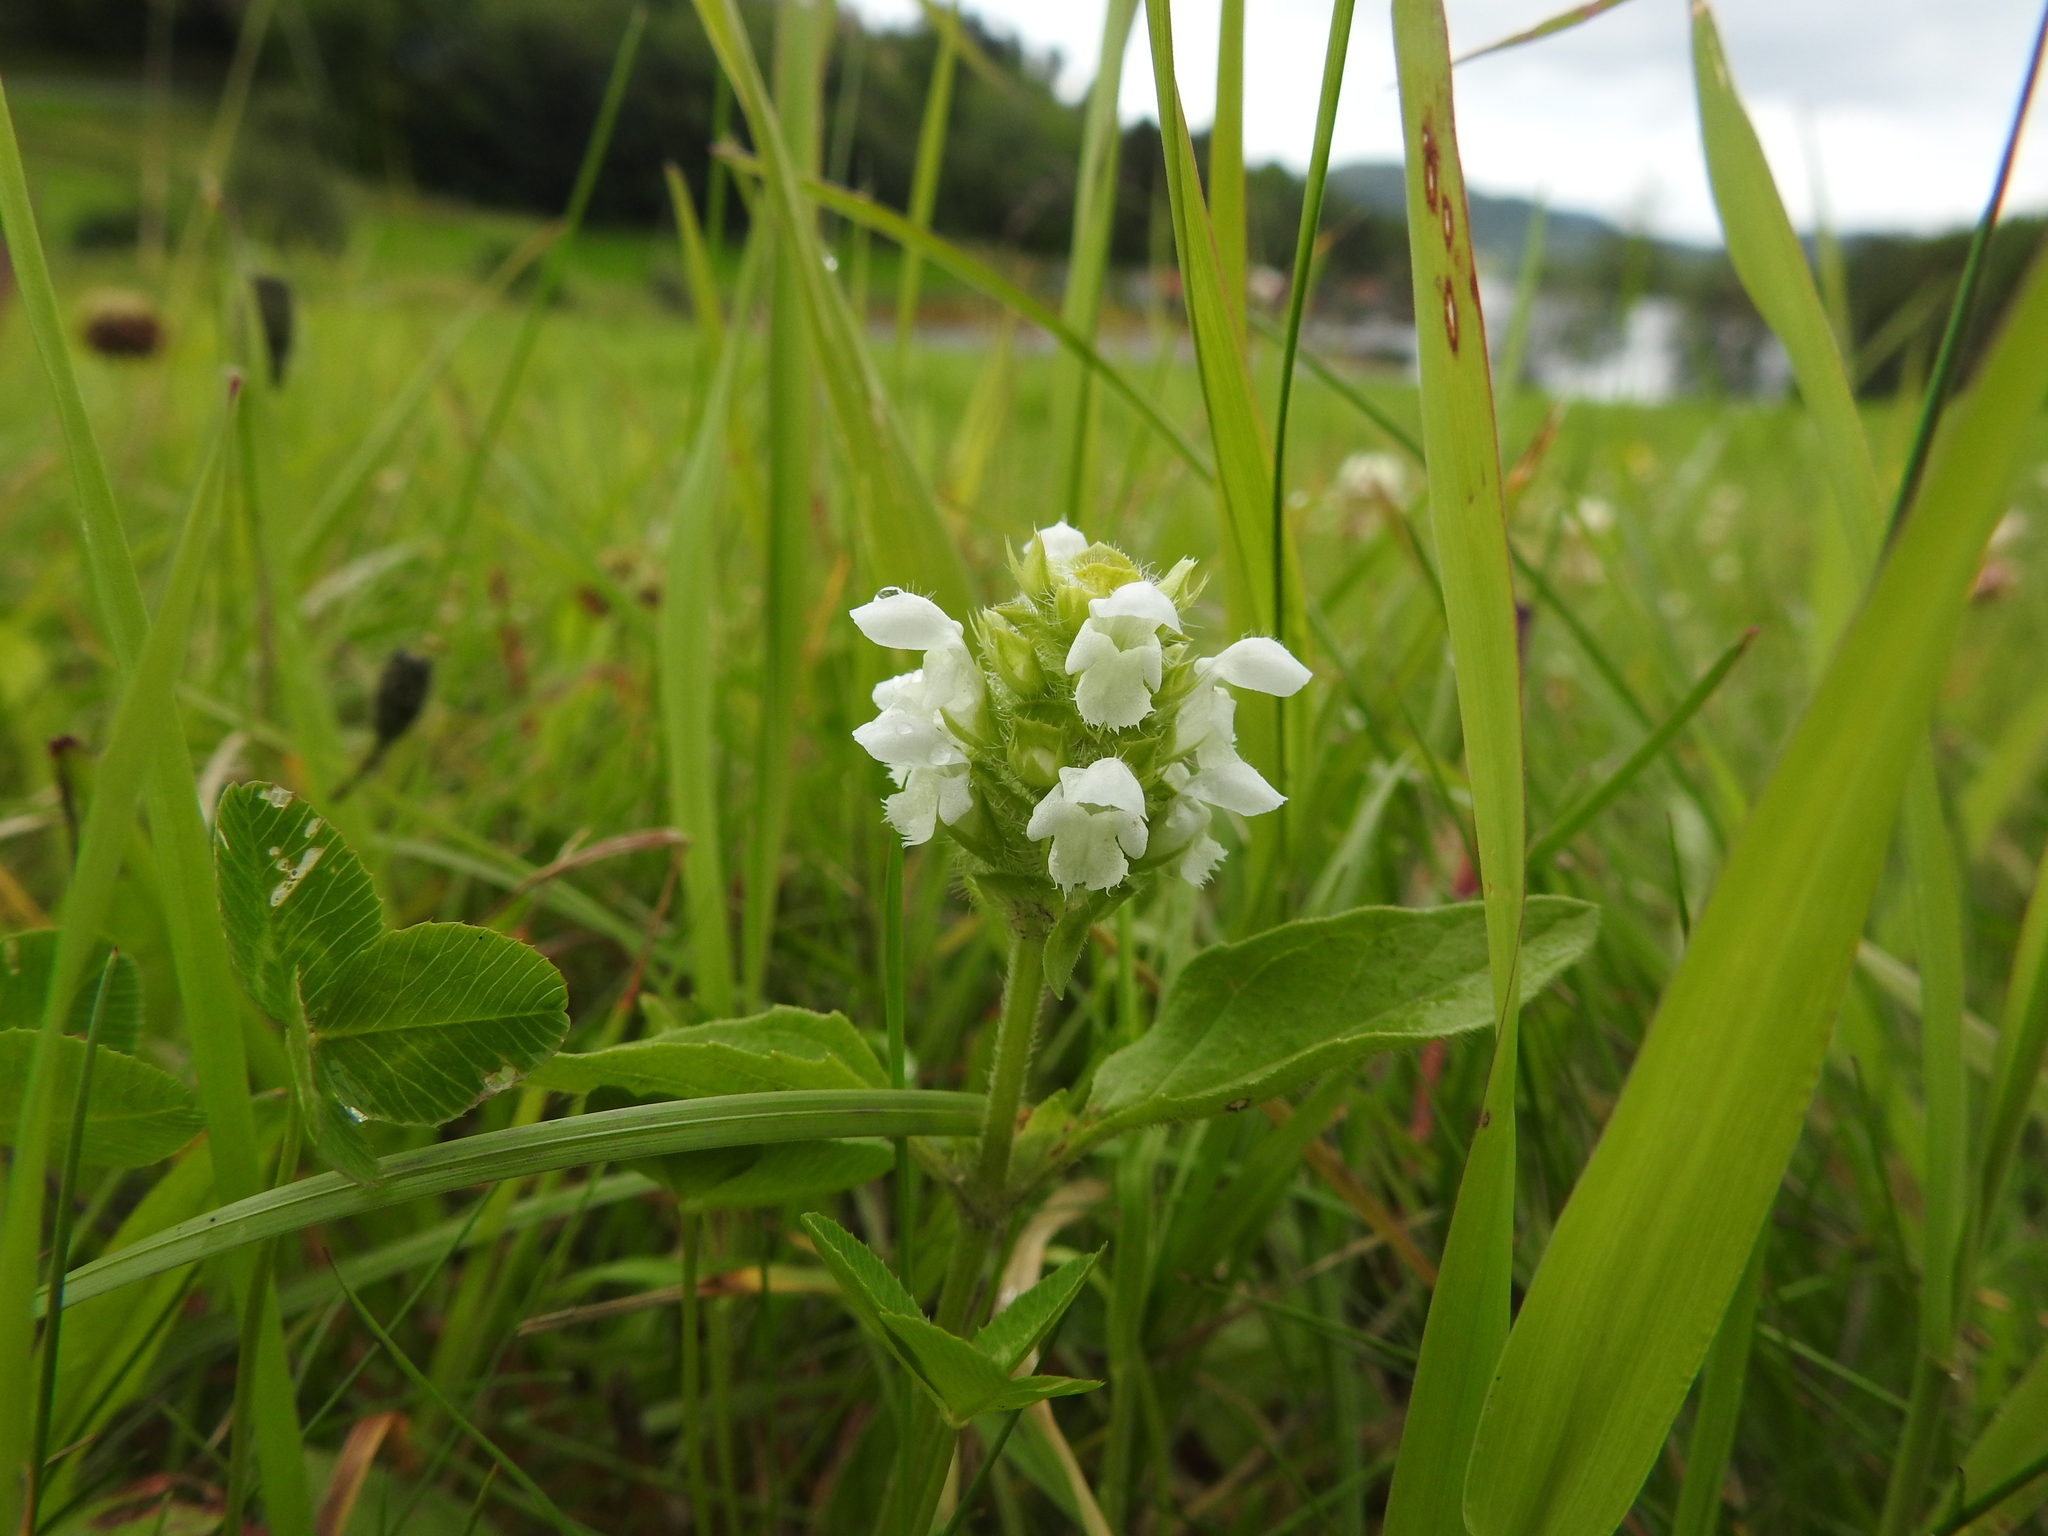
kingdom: Plantae
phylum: Tracheophyta
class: Magnoliopsida
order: Lamiales
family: Lamiaceae
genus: Prunella
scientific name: Prunella vulgaris
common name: Heal-all
